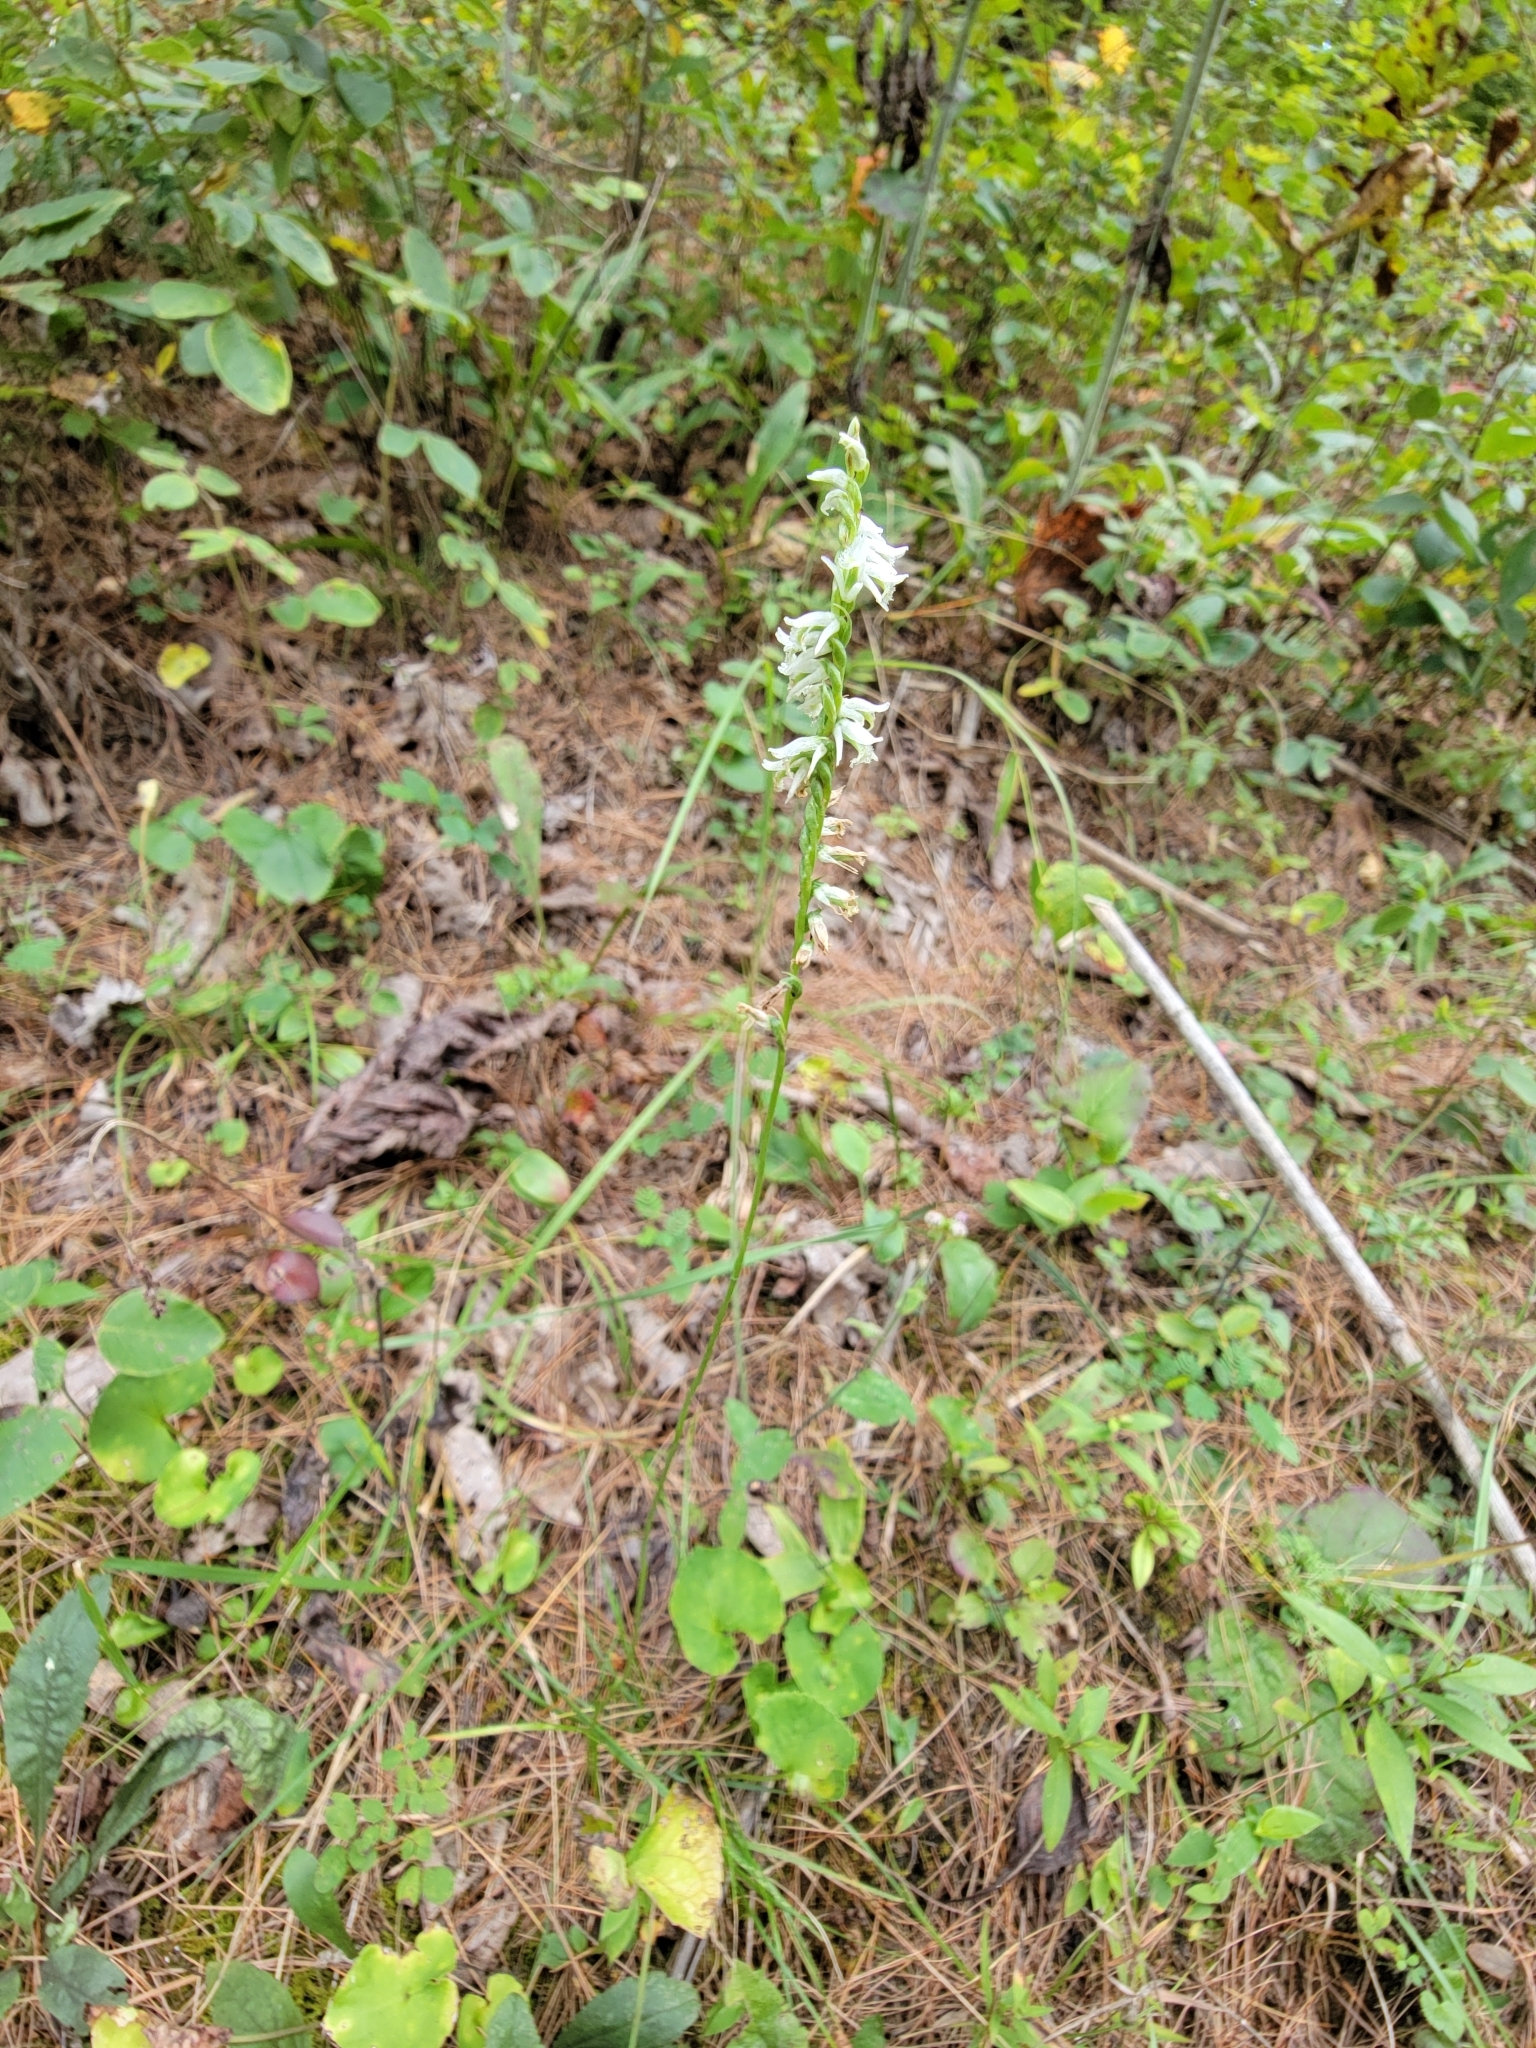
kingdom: Plantae
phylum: Tracheophyta
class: Liliopsida
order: Asparagales
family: Orchidaceae
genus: Spiranthes
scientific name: Spiranthes lacera
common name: Northern slender ladies'-tresses
